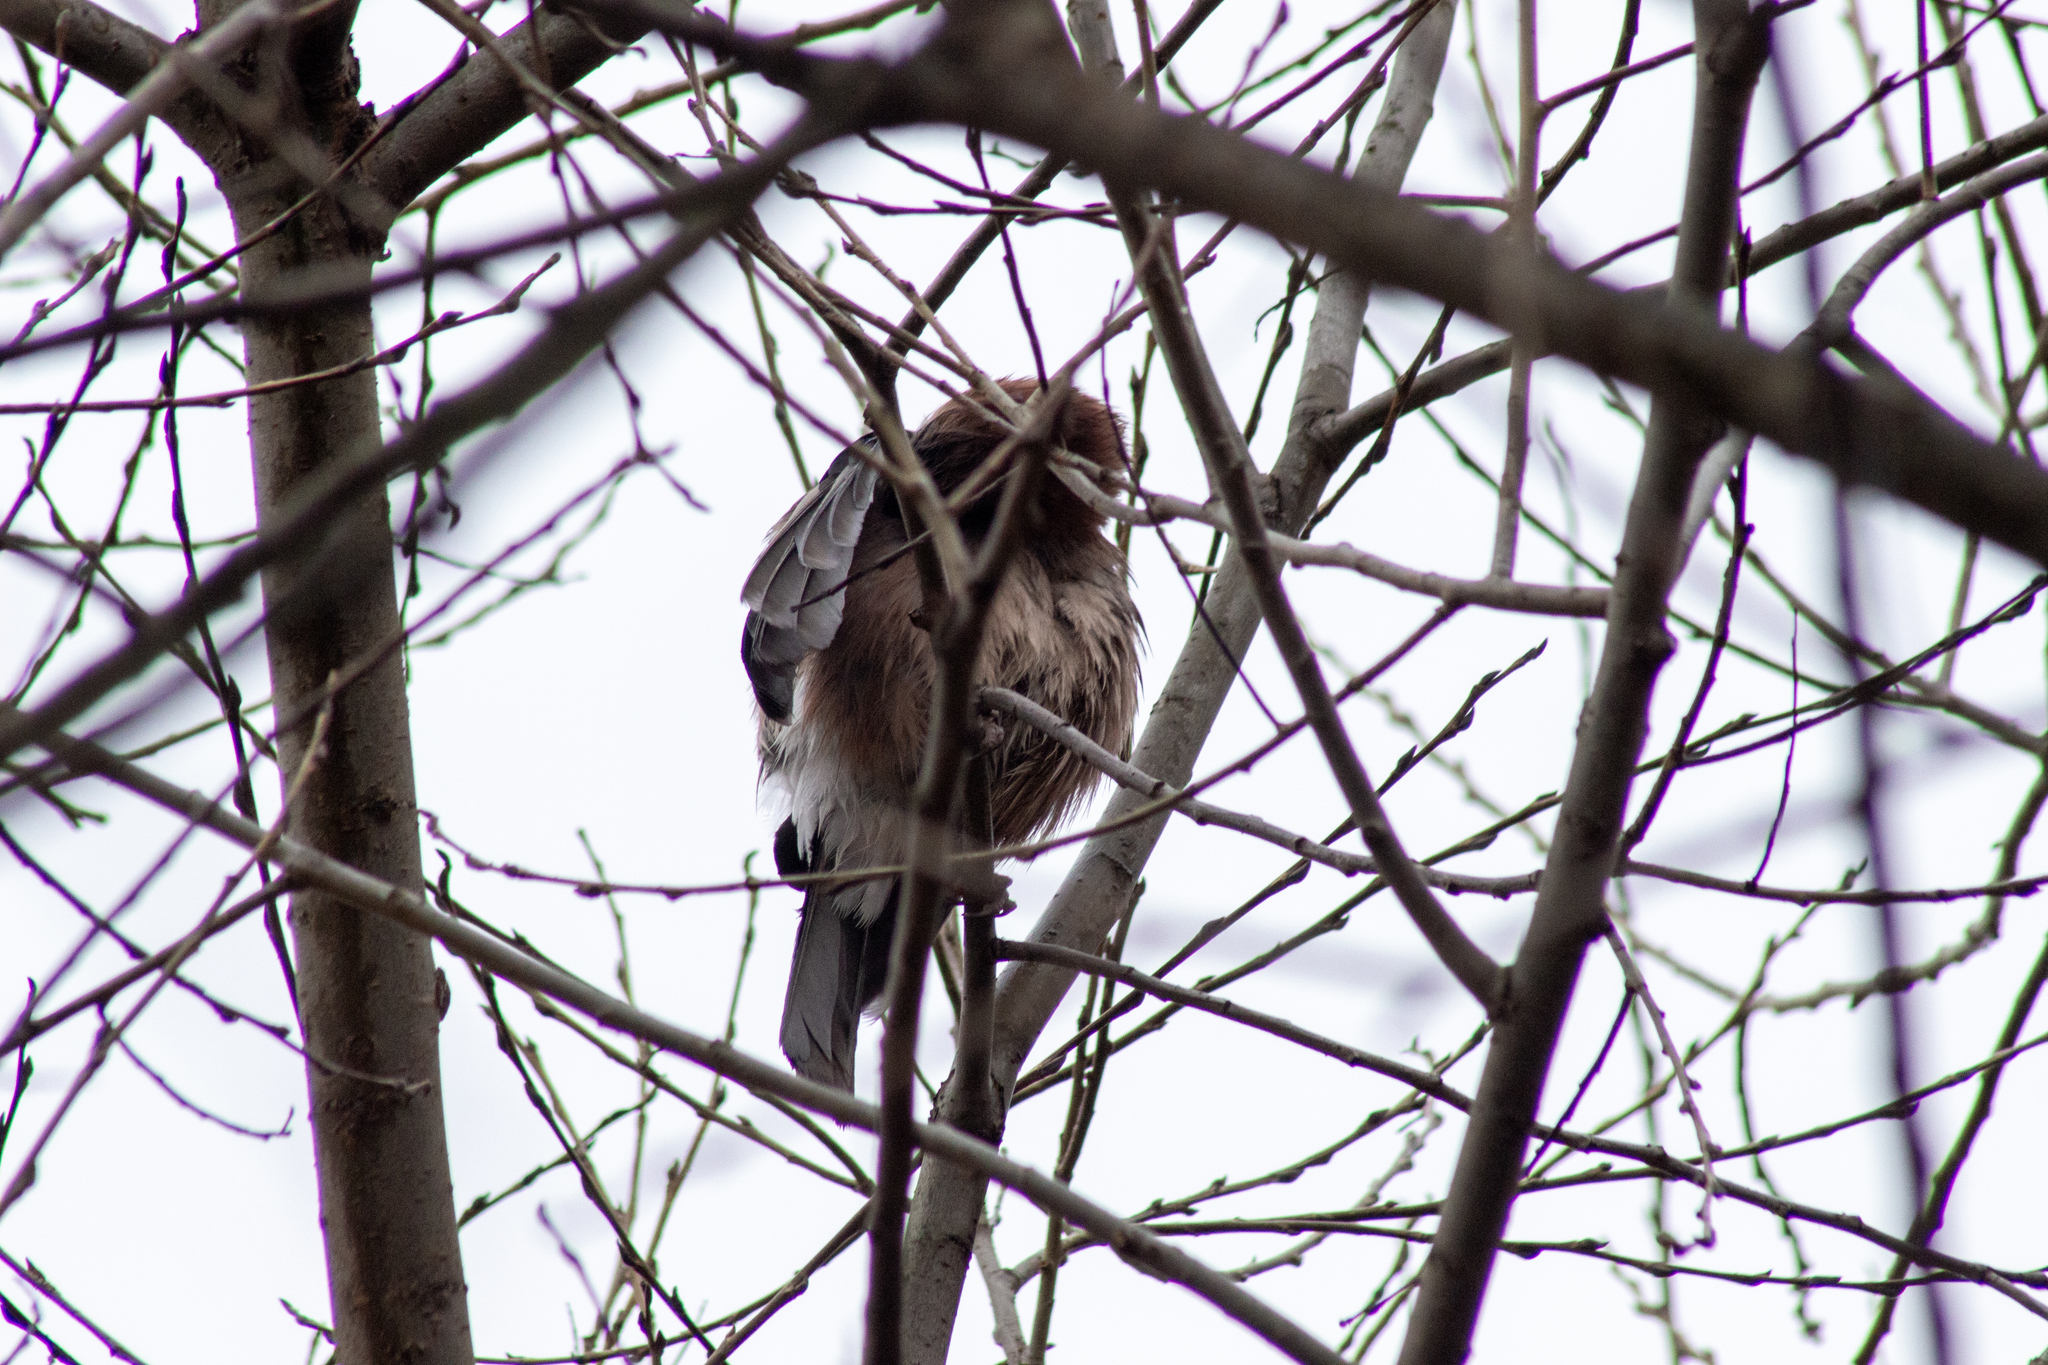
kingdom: Animalia
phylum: Chordata
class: Aves
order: Passeriformes
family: Corvidae
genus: Garrulus
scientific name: Garrulus glandarius
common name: Eurasian jay
